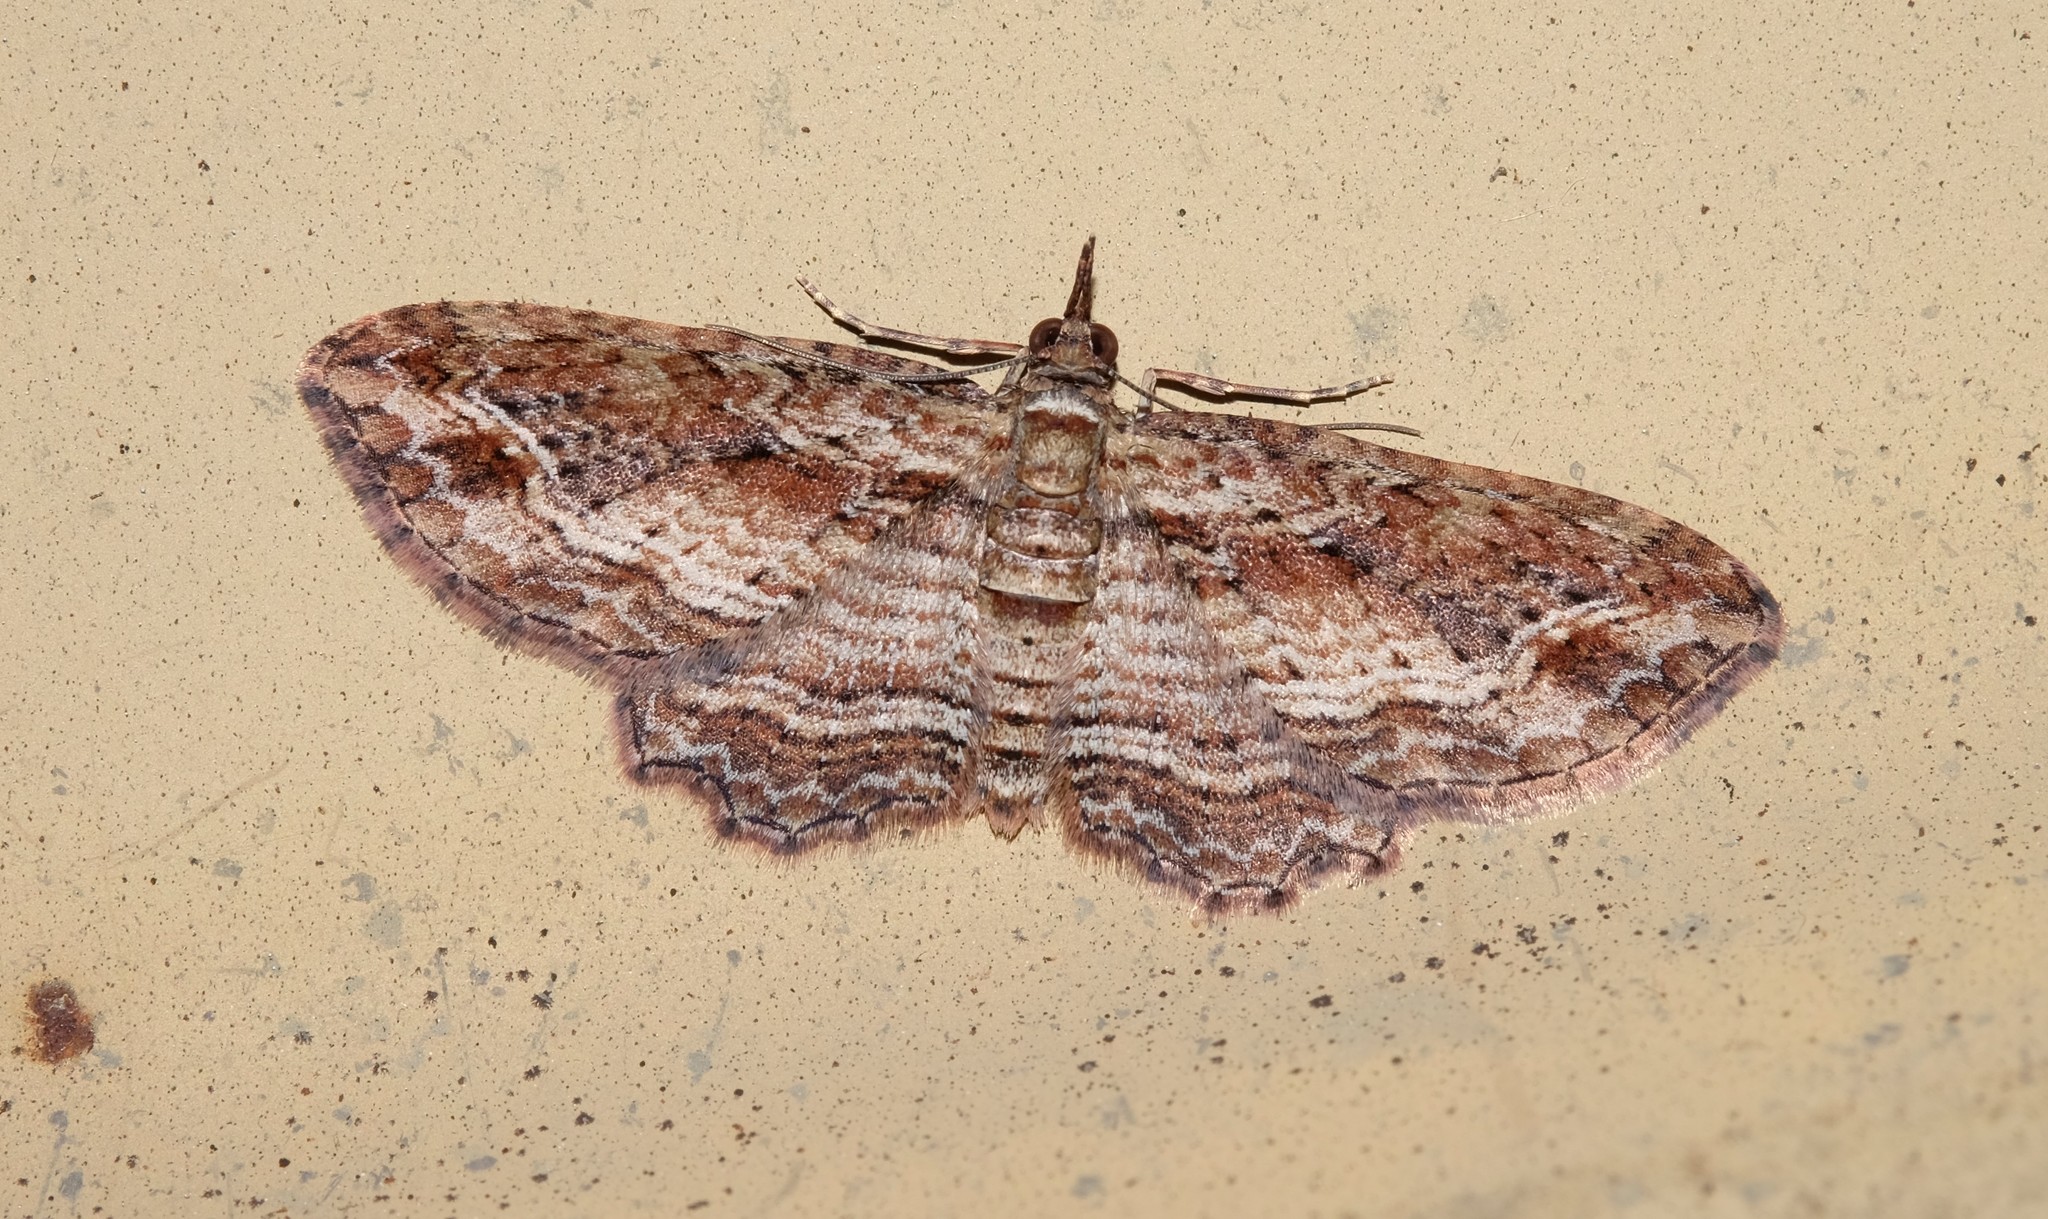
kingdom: Animalia
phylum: Arthropoda
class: Insecta
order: Lepidoptera
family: Geometridae
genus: Chloroclystis
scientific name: Chloroclystis filata
